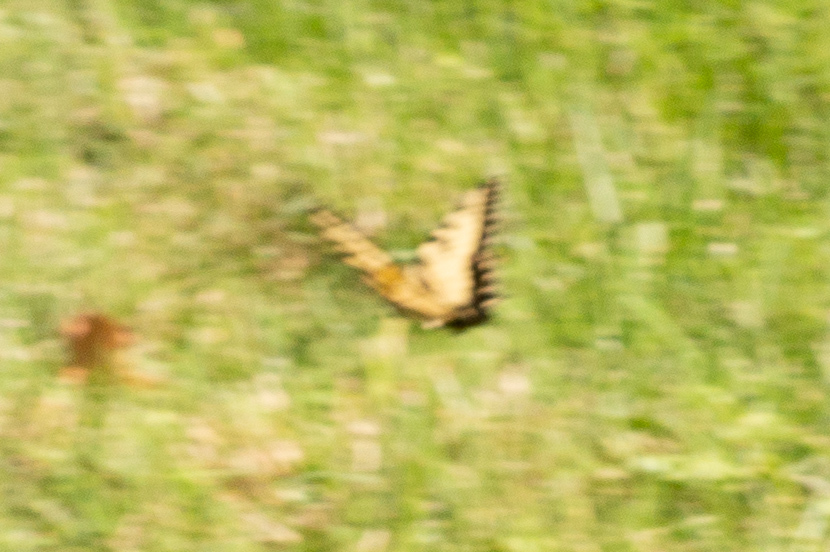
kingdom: Animalia
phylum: Arthropoda
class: Insecta
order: Lepidoptera
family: Papilionidae
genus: Papilio
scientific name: Papilio glaucus
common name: Tiger swallowtail
